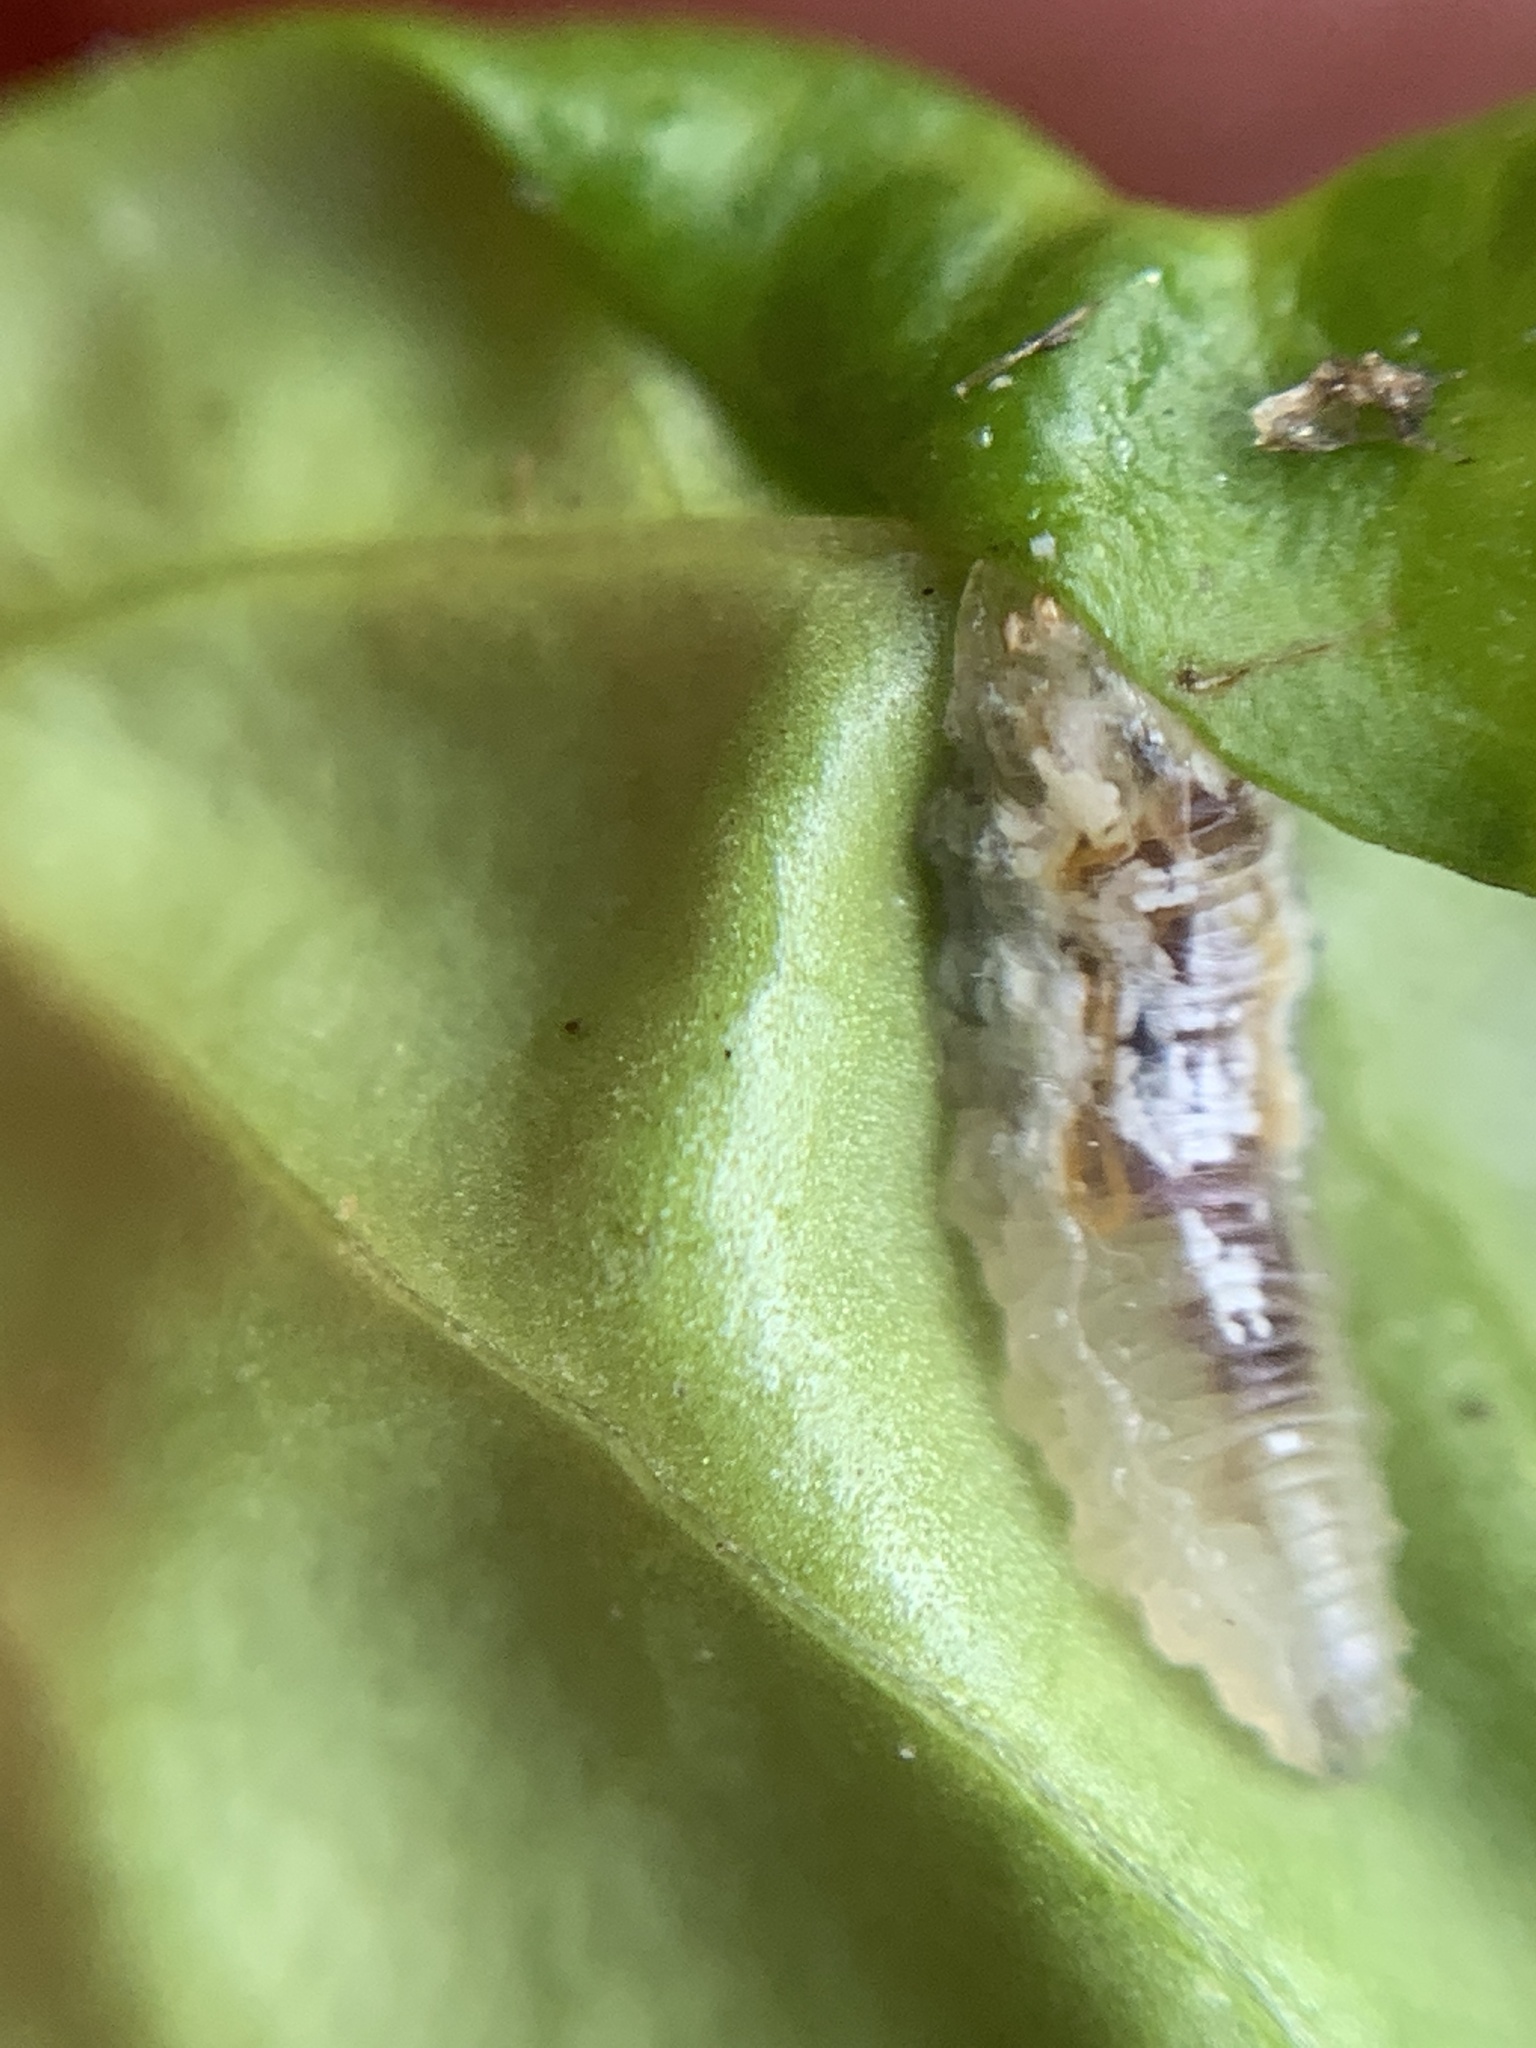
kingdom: Animalia
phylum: Arthropoda
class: Insecta
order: Diptera
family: Syrphidae
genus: Episyrphus
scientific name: Episyrphus balteatus
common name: Marmalade hoverfly
